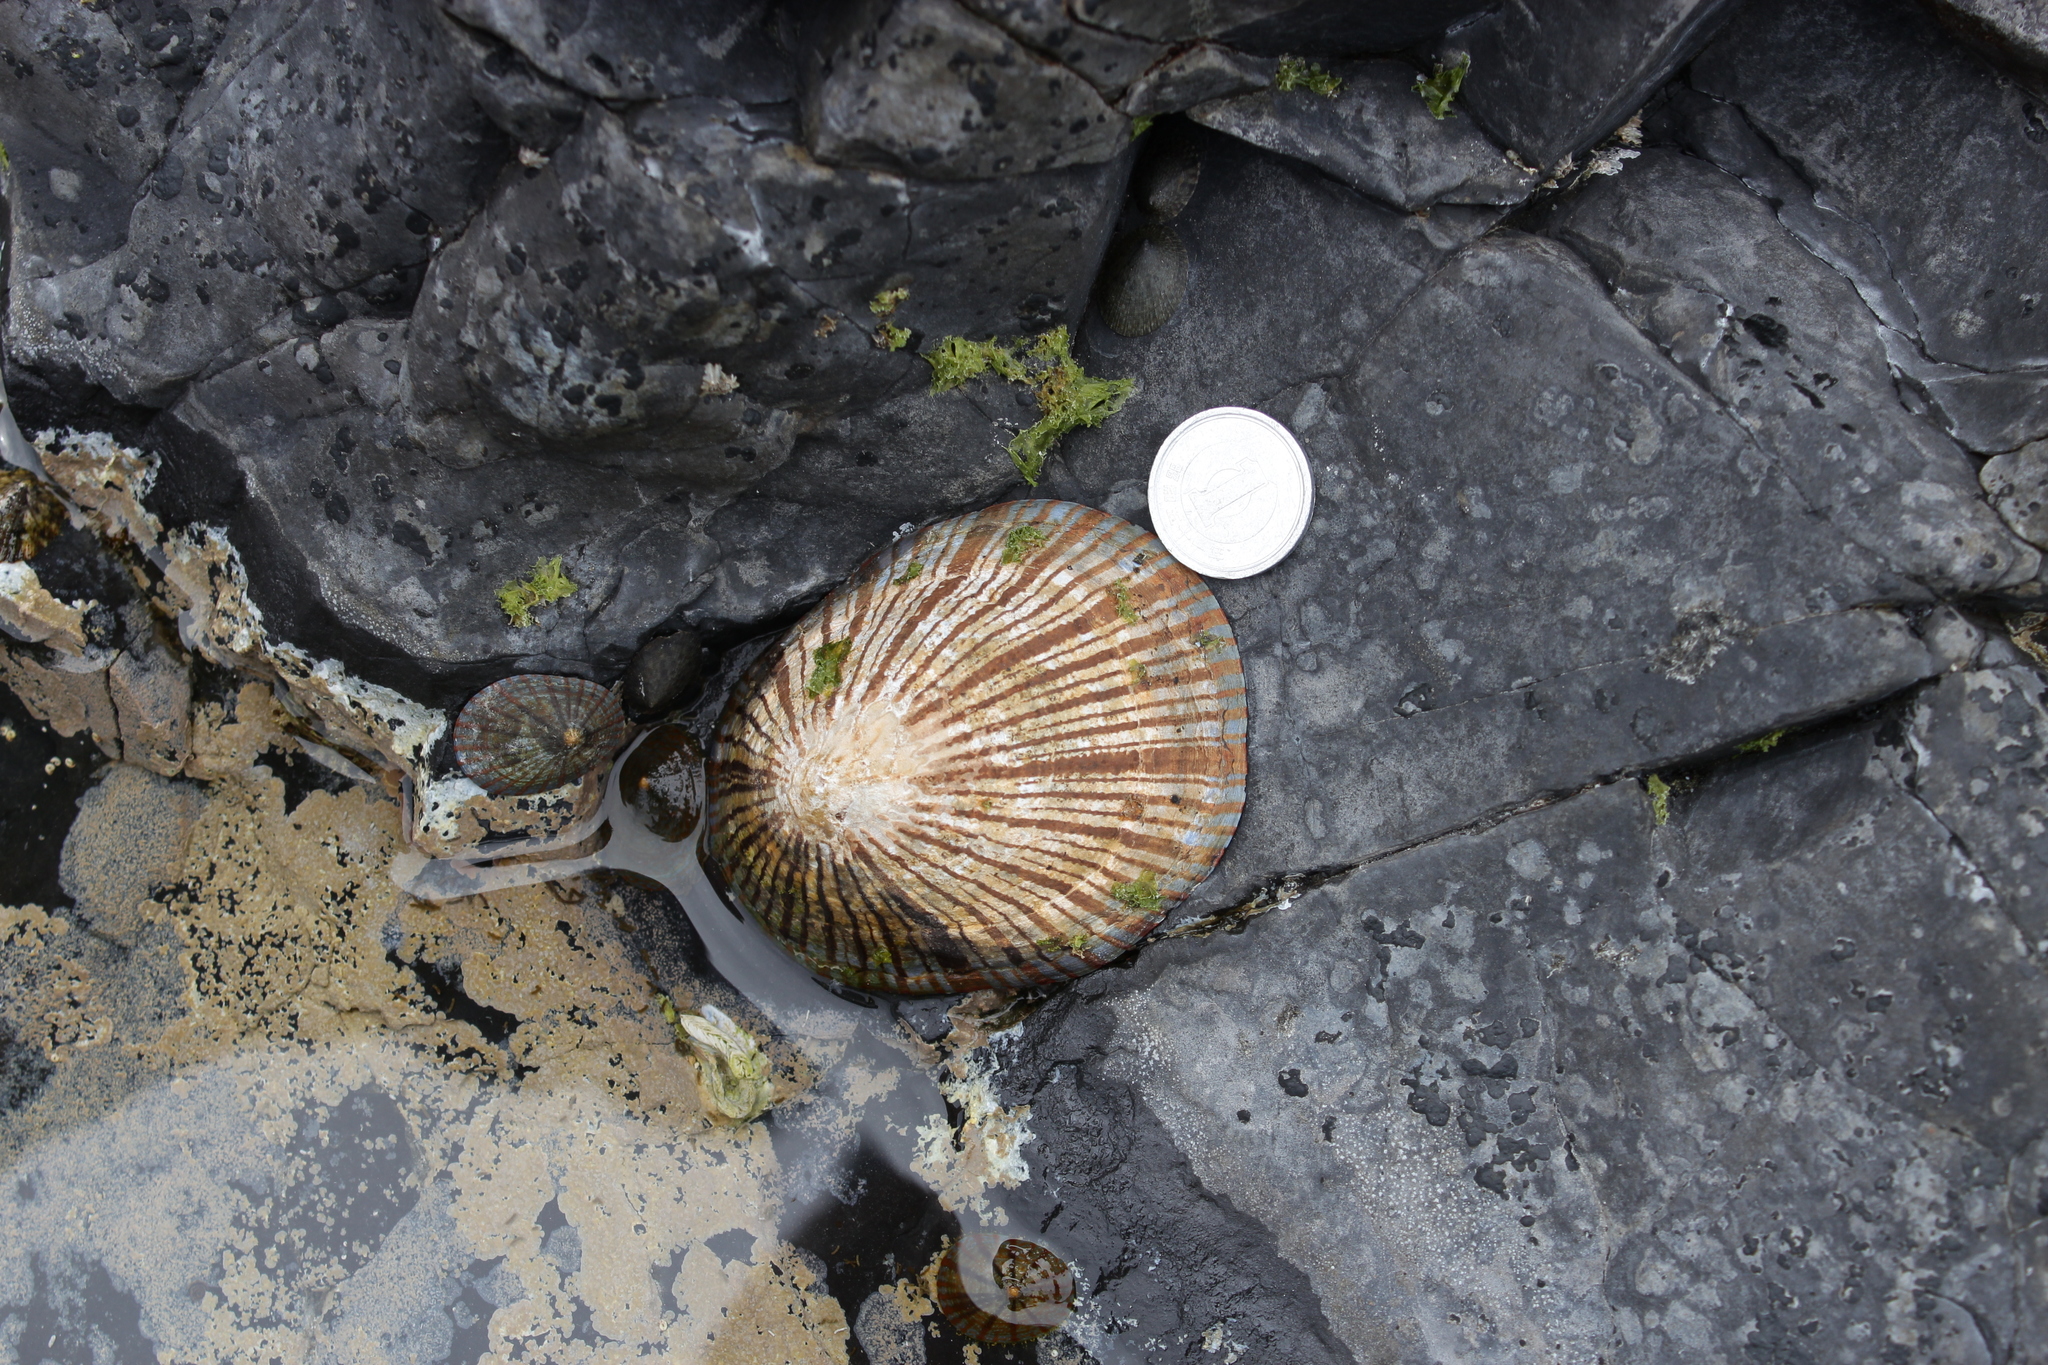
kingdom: Animalia
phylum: Mollusca
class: Gastropoda
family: Nacellidae
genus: Cellana
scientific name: Cellana nigrolineata
